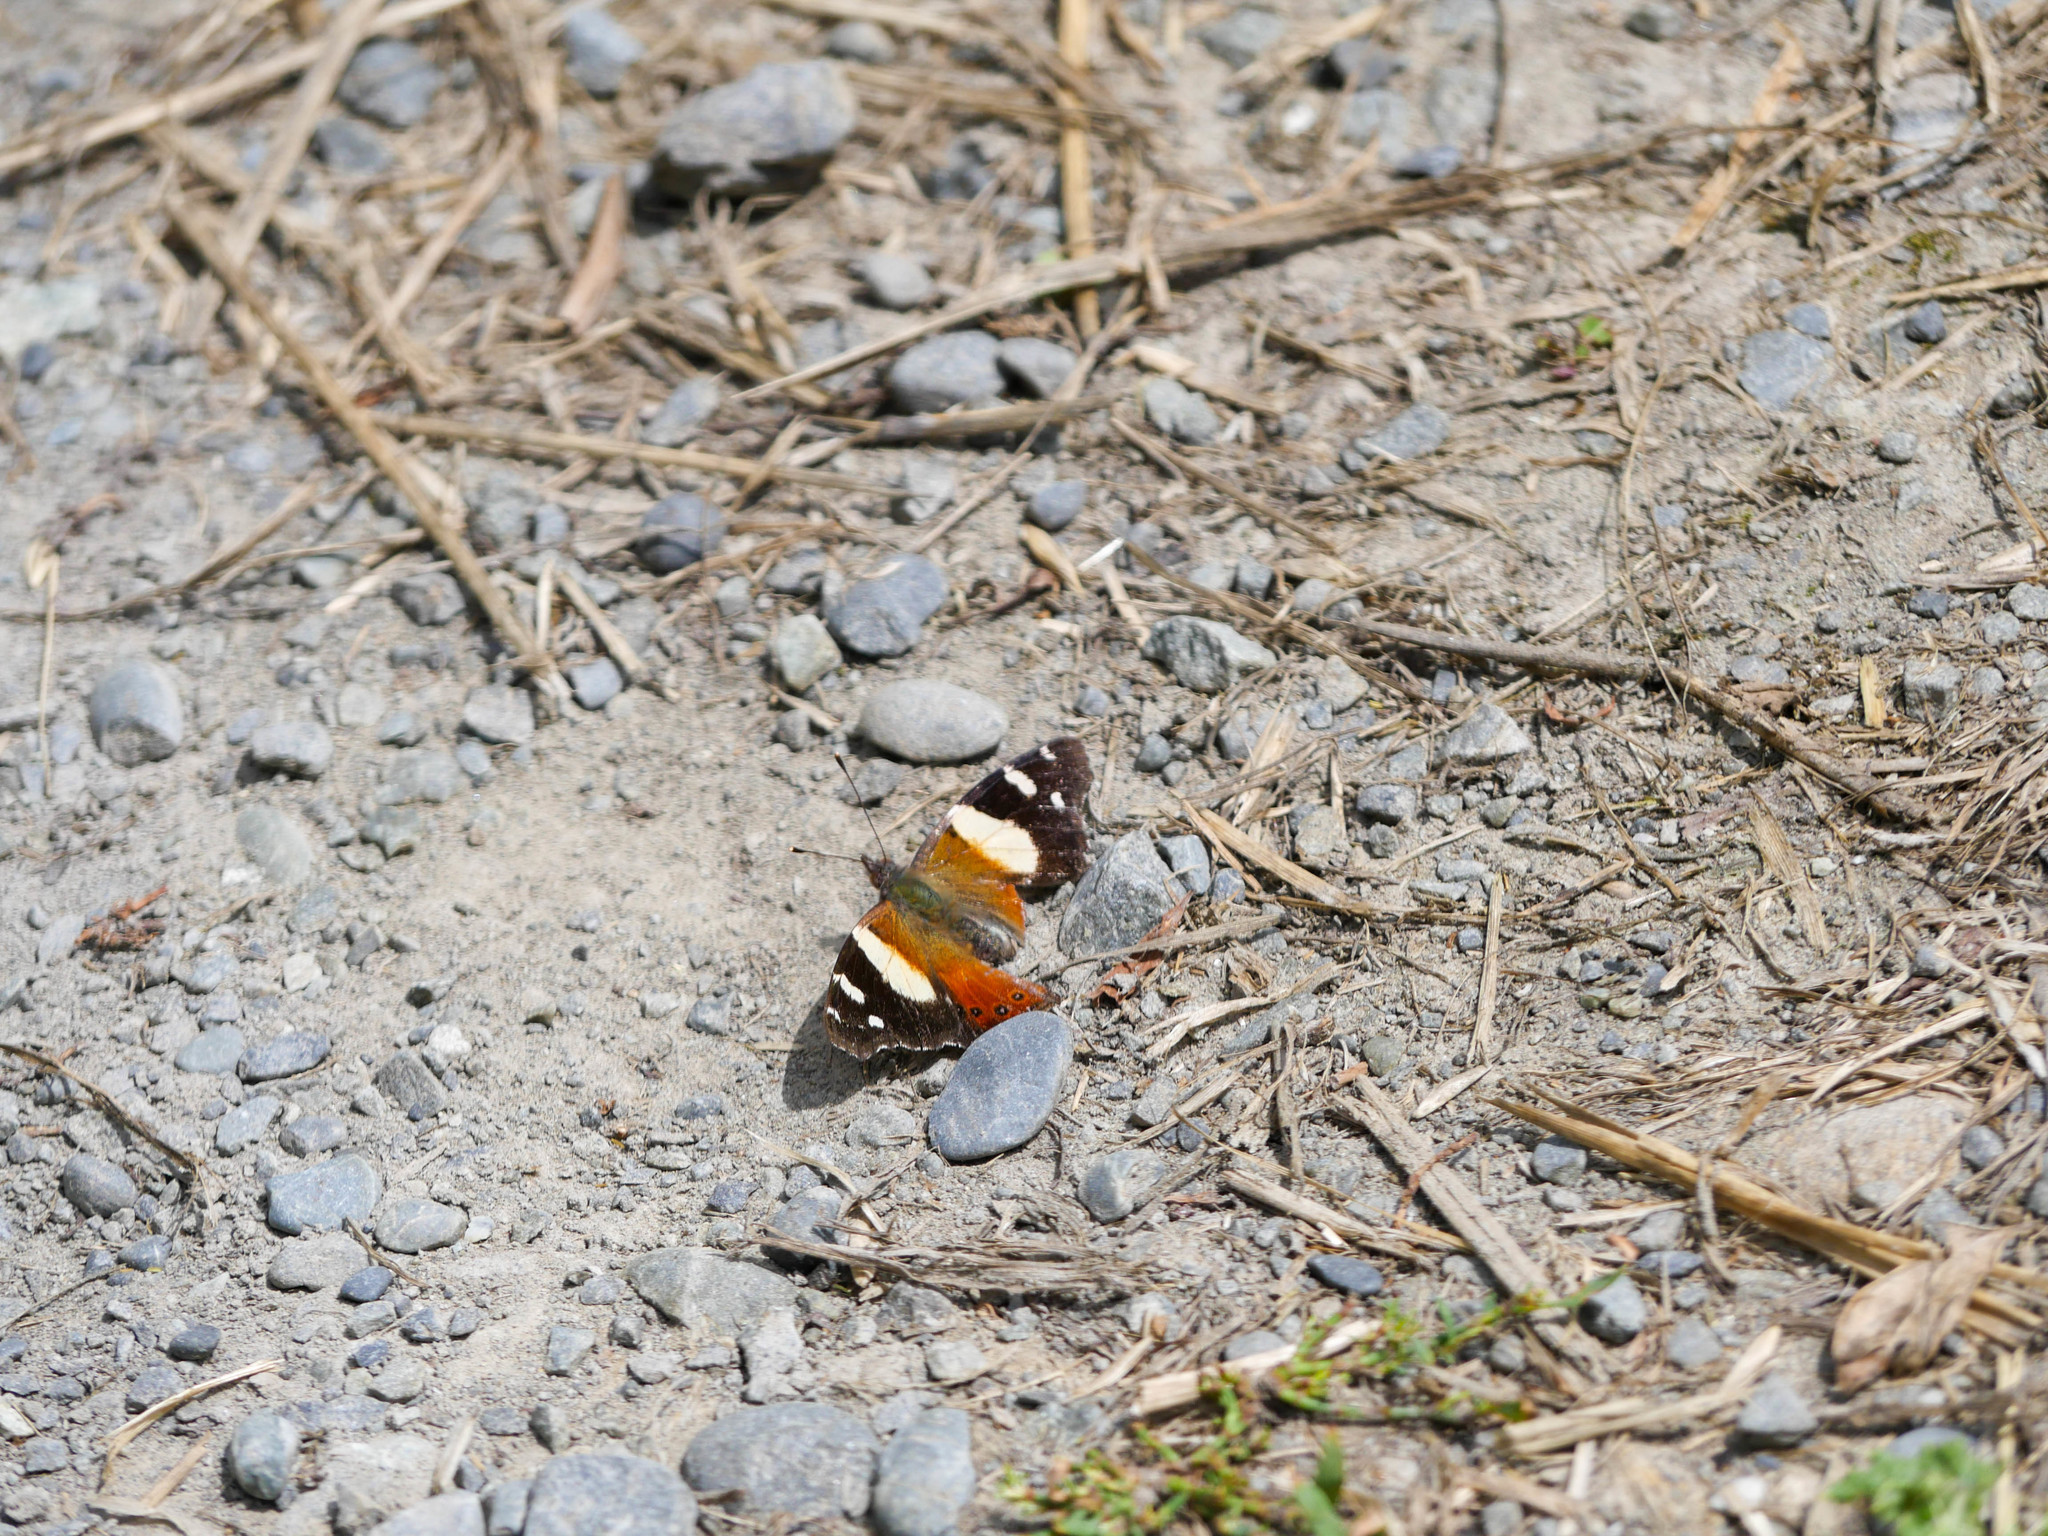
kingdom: Animalia
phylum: Arthropoda
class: Insecta
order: Lepidoptera
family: Nymphalidae
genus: Vanessa
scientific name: Vanessa itea
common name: Yellow admiral
